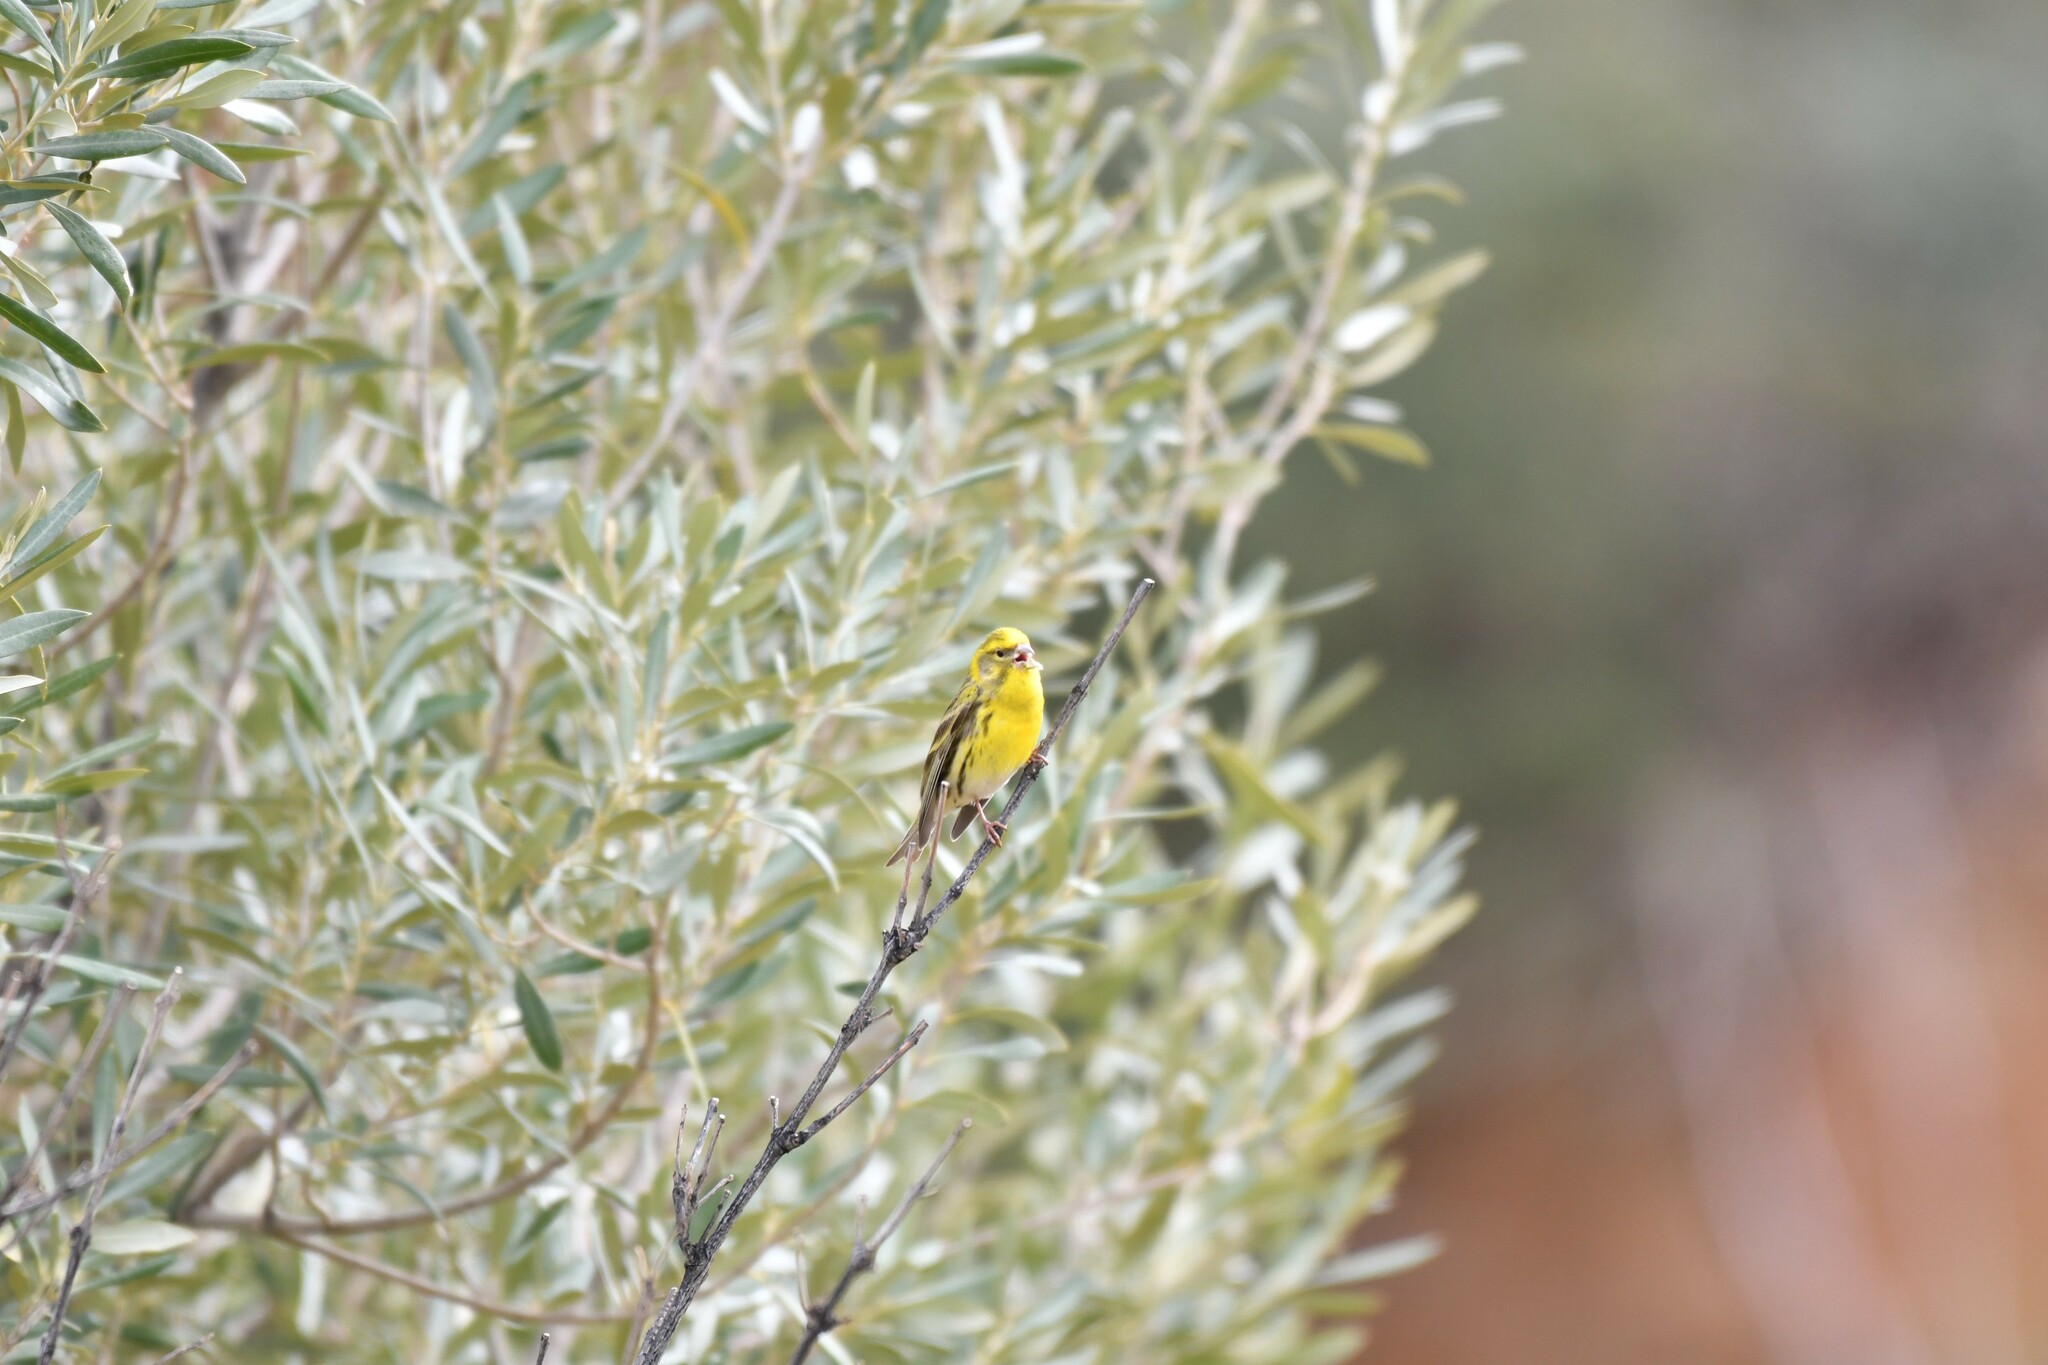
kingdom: Animalia
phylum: Chordata
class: Aves
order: Passeriformes
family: Fringillidae
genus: Serinus
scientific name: Serinus serinus
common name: European serin
